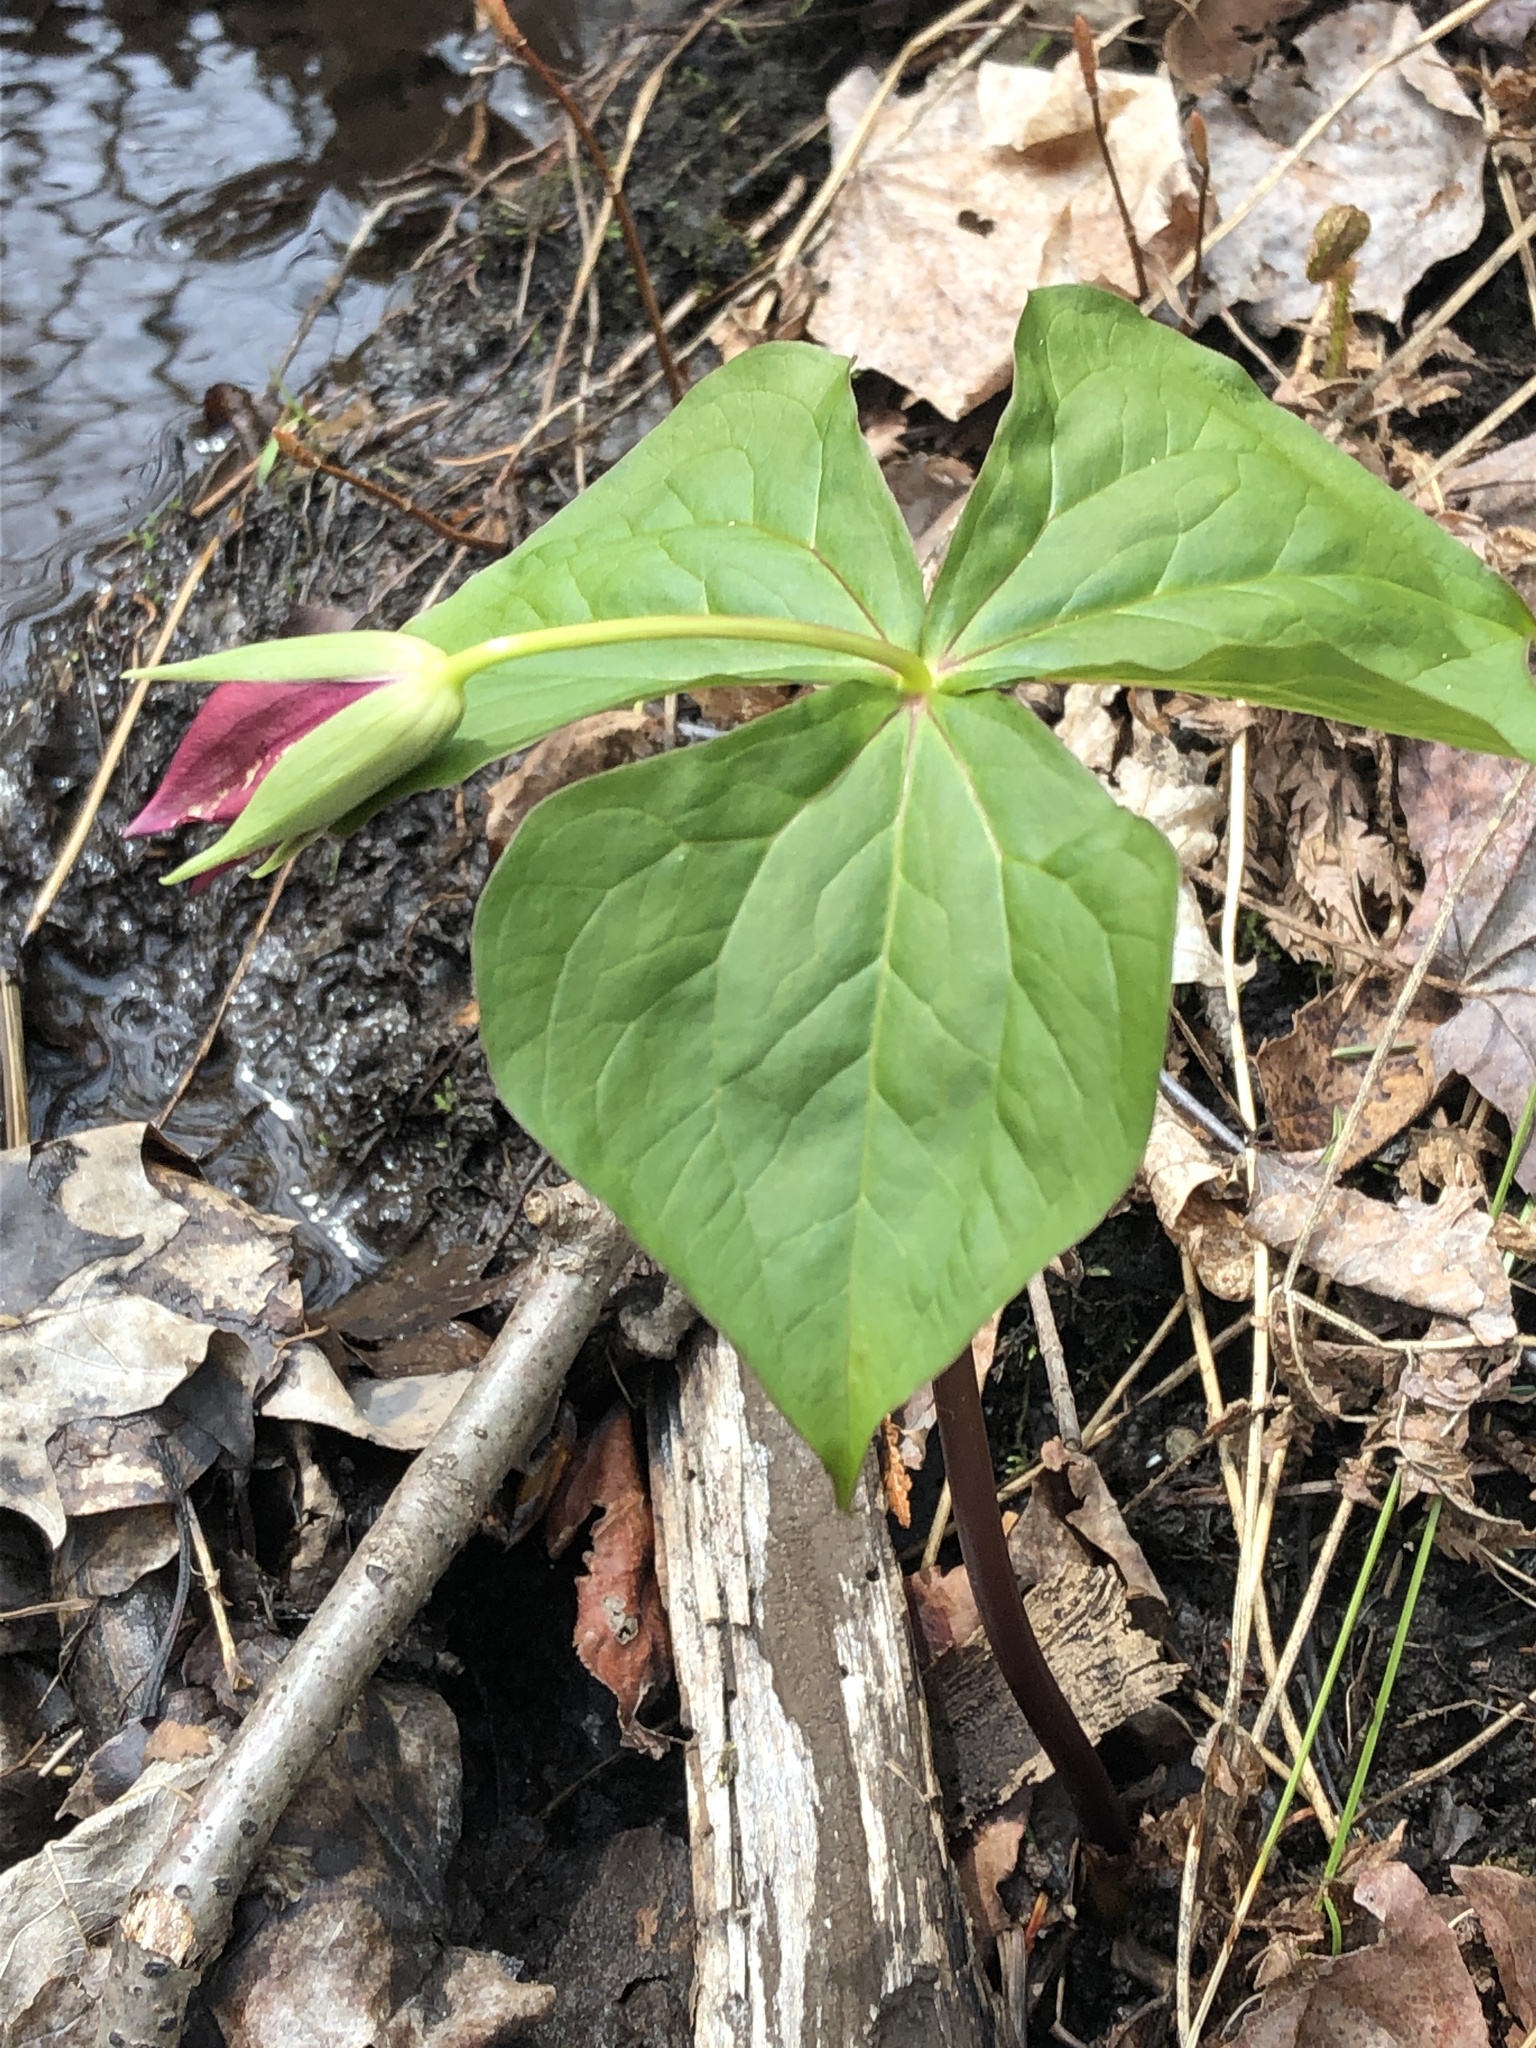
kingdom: Plantae
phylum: Tracheophyta
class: Liliopsida
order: Liliales
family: Melanthiaceae
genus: Trillium
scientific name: Trillium erectum
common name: Purple trillium
